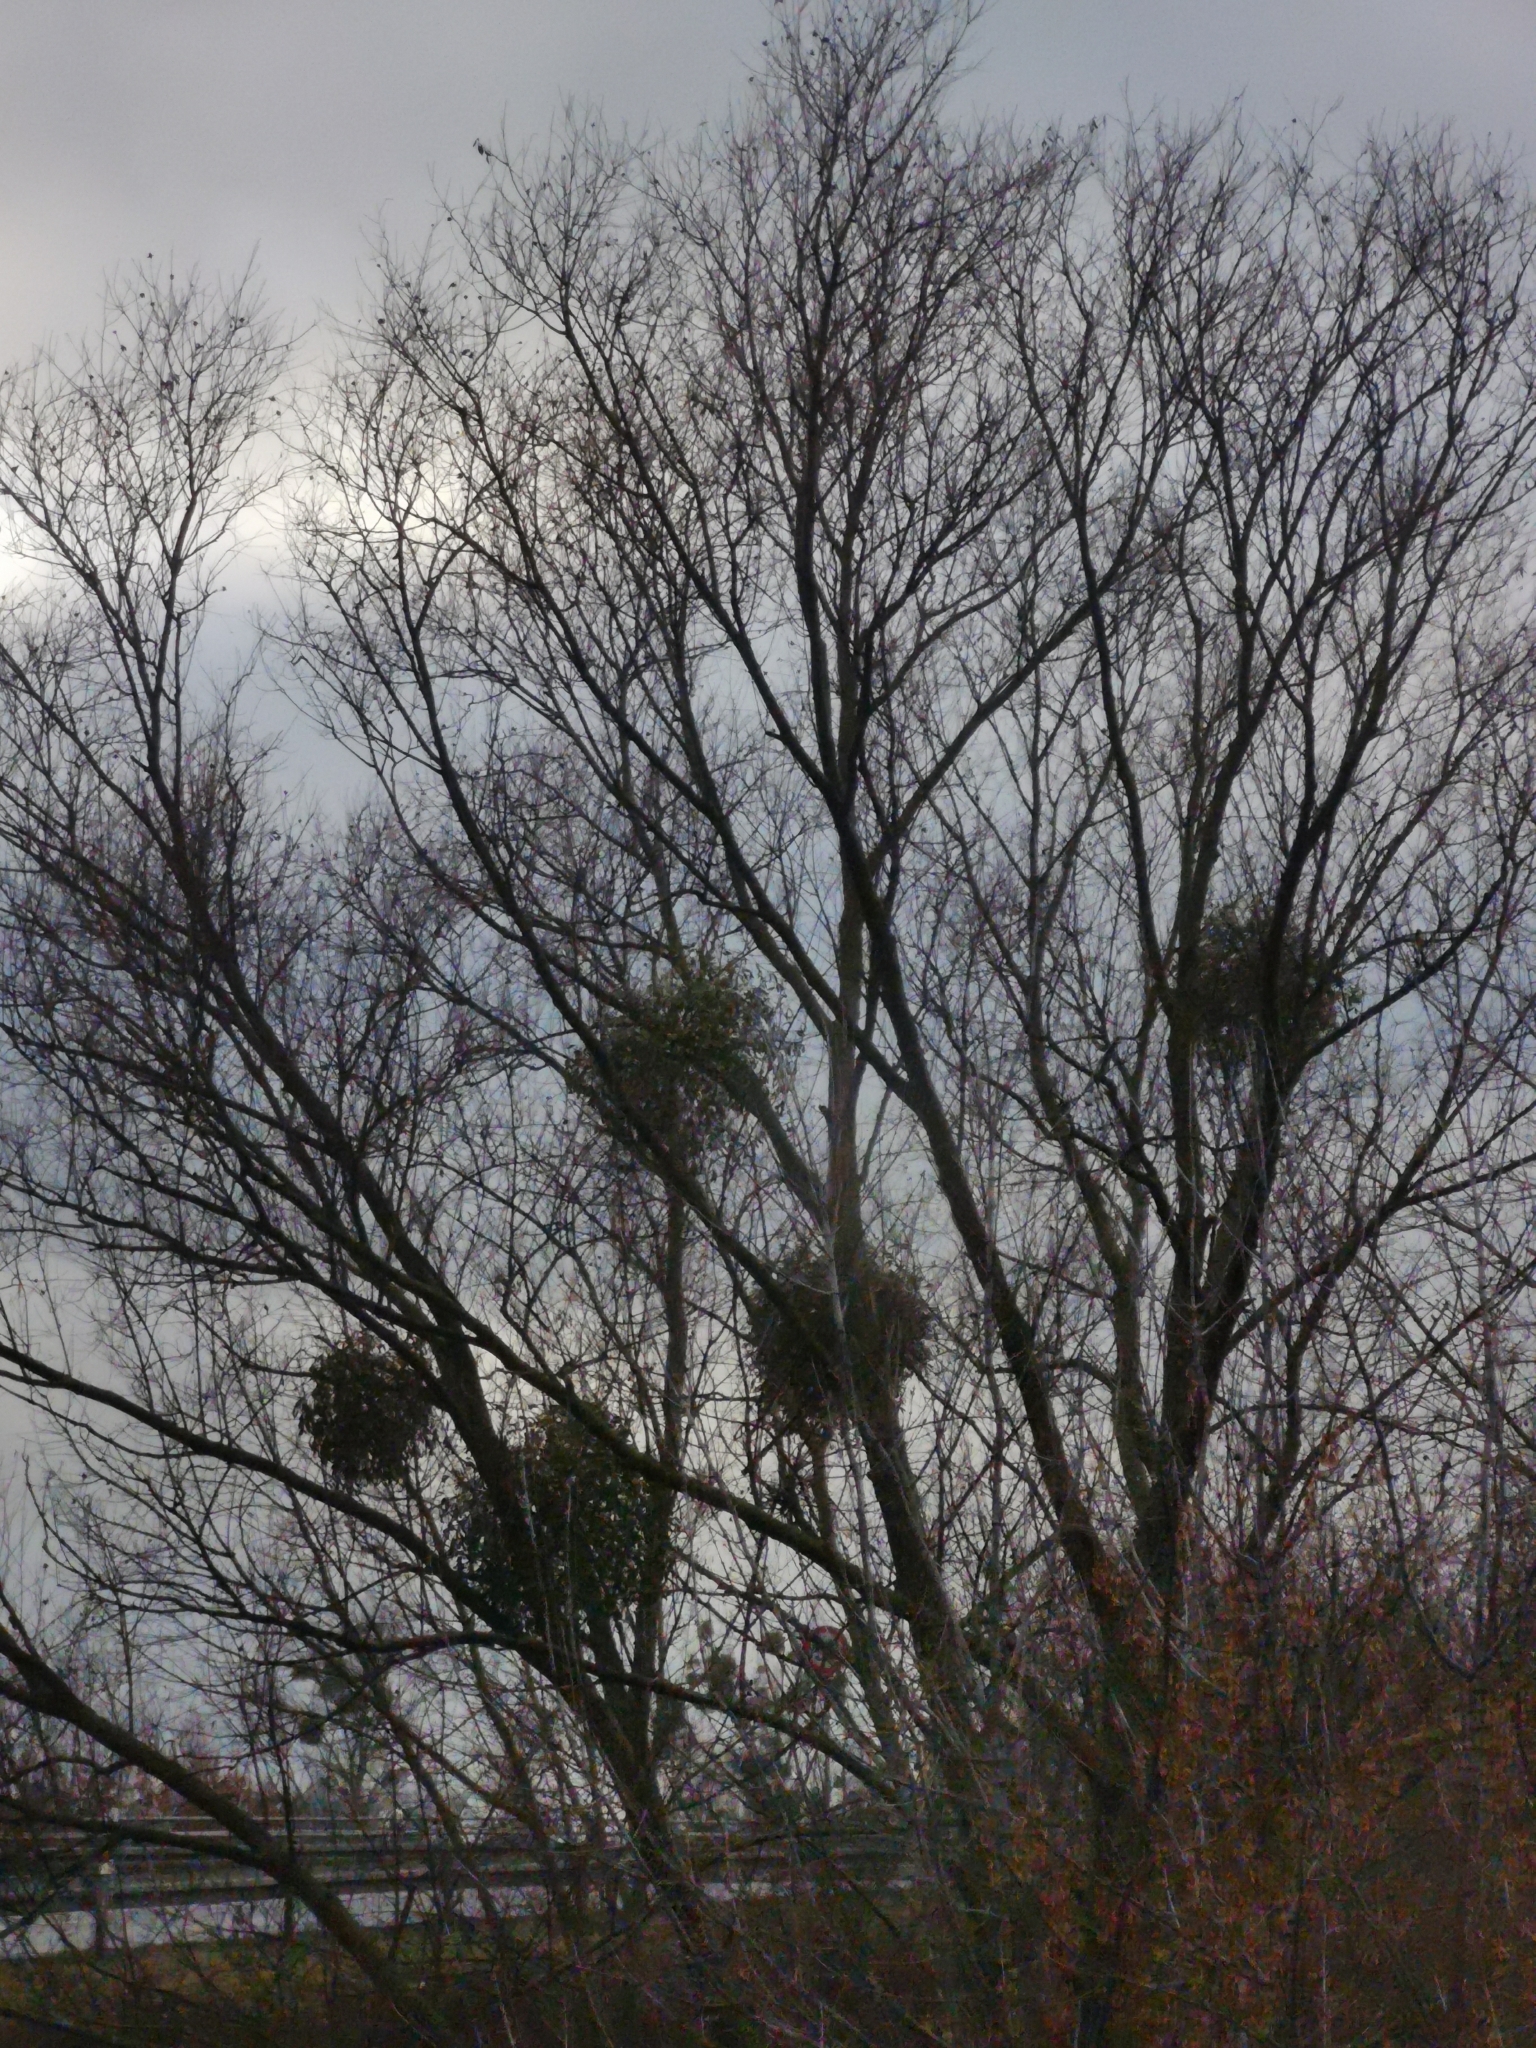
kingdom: Plantae
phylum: Tracheophyta
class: Magnoliopsida
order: Santalales
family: Viscaceae
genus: Viscum
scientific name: Viscum album
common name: Mistletoe
